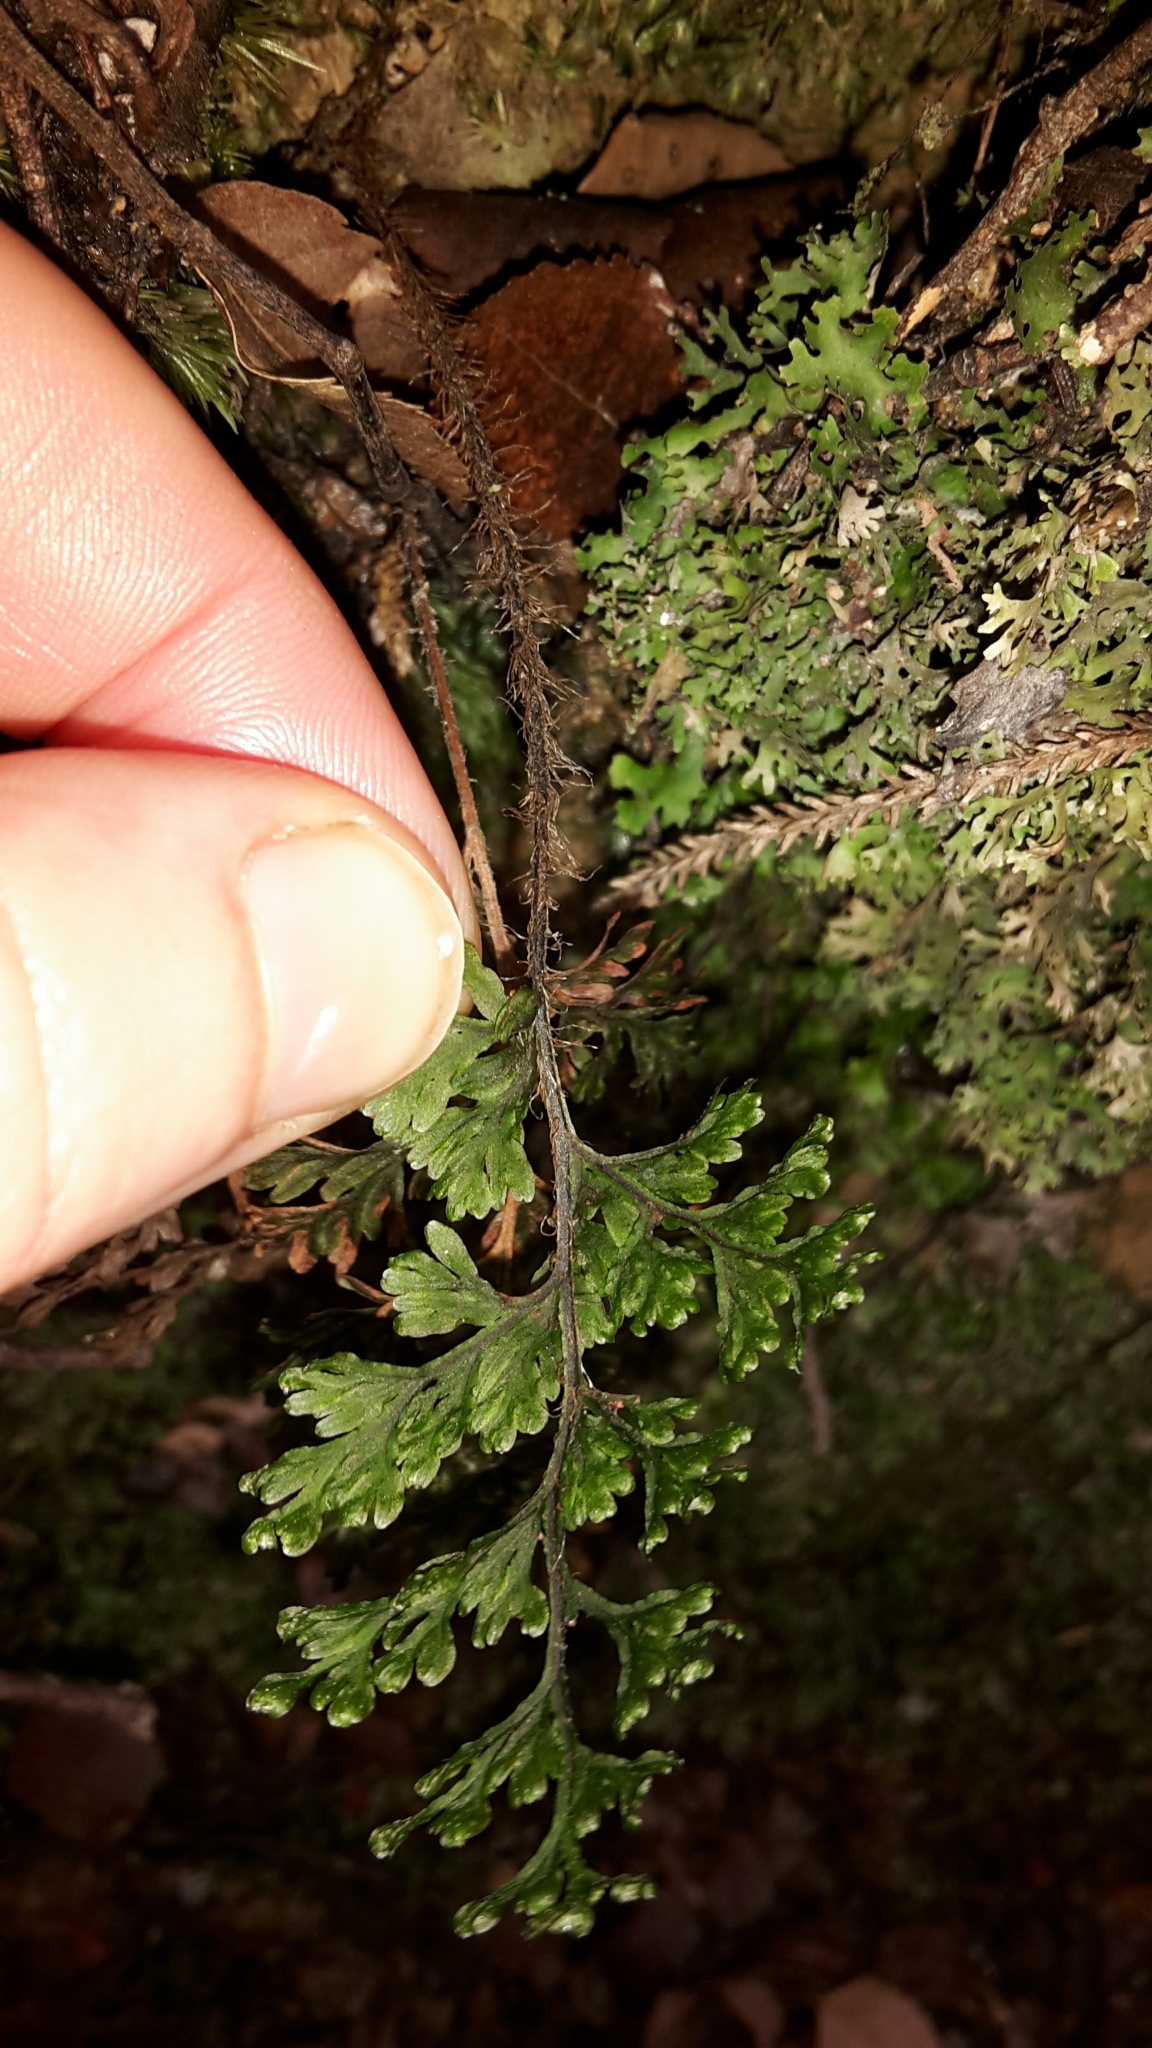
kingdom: Plantae
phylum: Tracheophyta
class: Polypodiopsida
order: Hymenophyllales
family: Hymenophyllaceae
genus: Hymenophyllum
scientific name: Hymenophyllum scabrum
